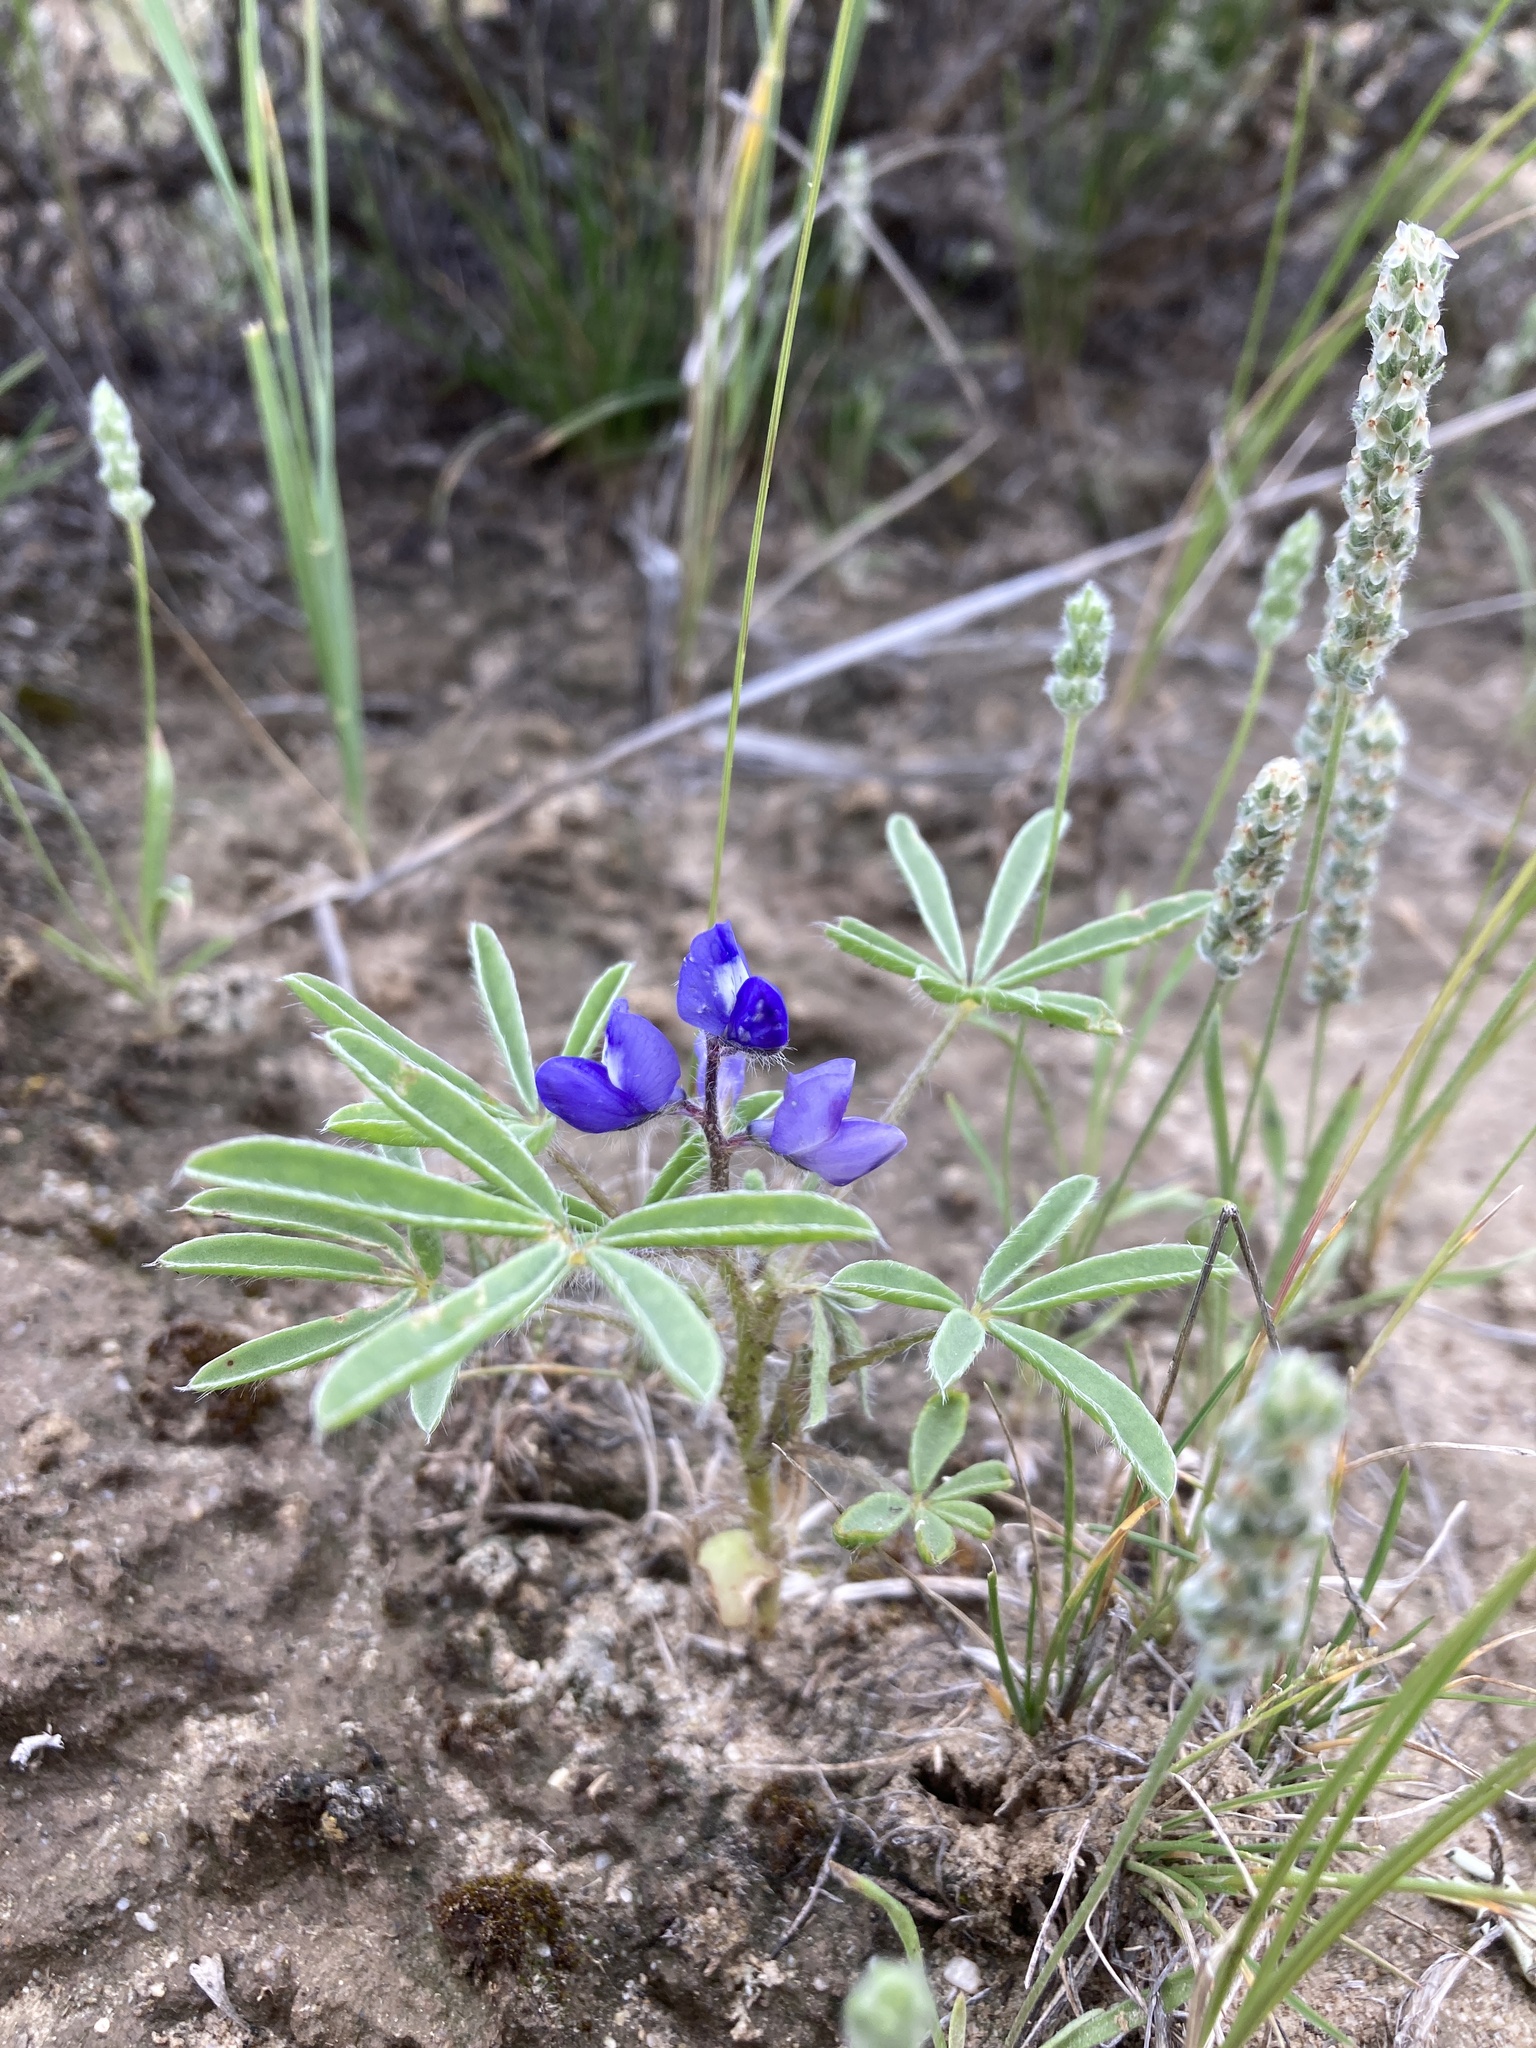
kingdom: Plantae
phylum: Tracheophyta
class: Magnoliopsida
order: Fabales
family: Fabaceae
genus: Lupinus
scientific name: Lupinus pusillus
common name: Low lupine
